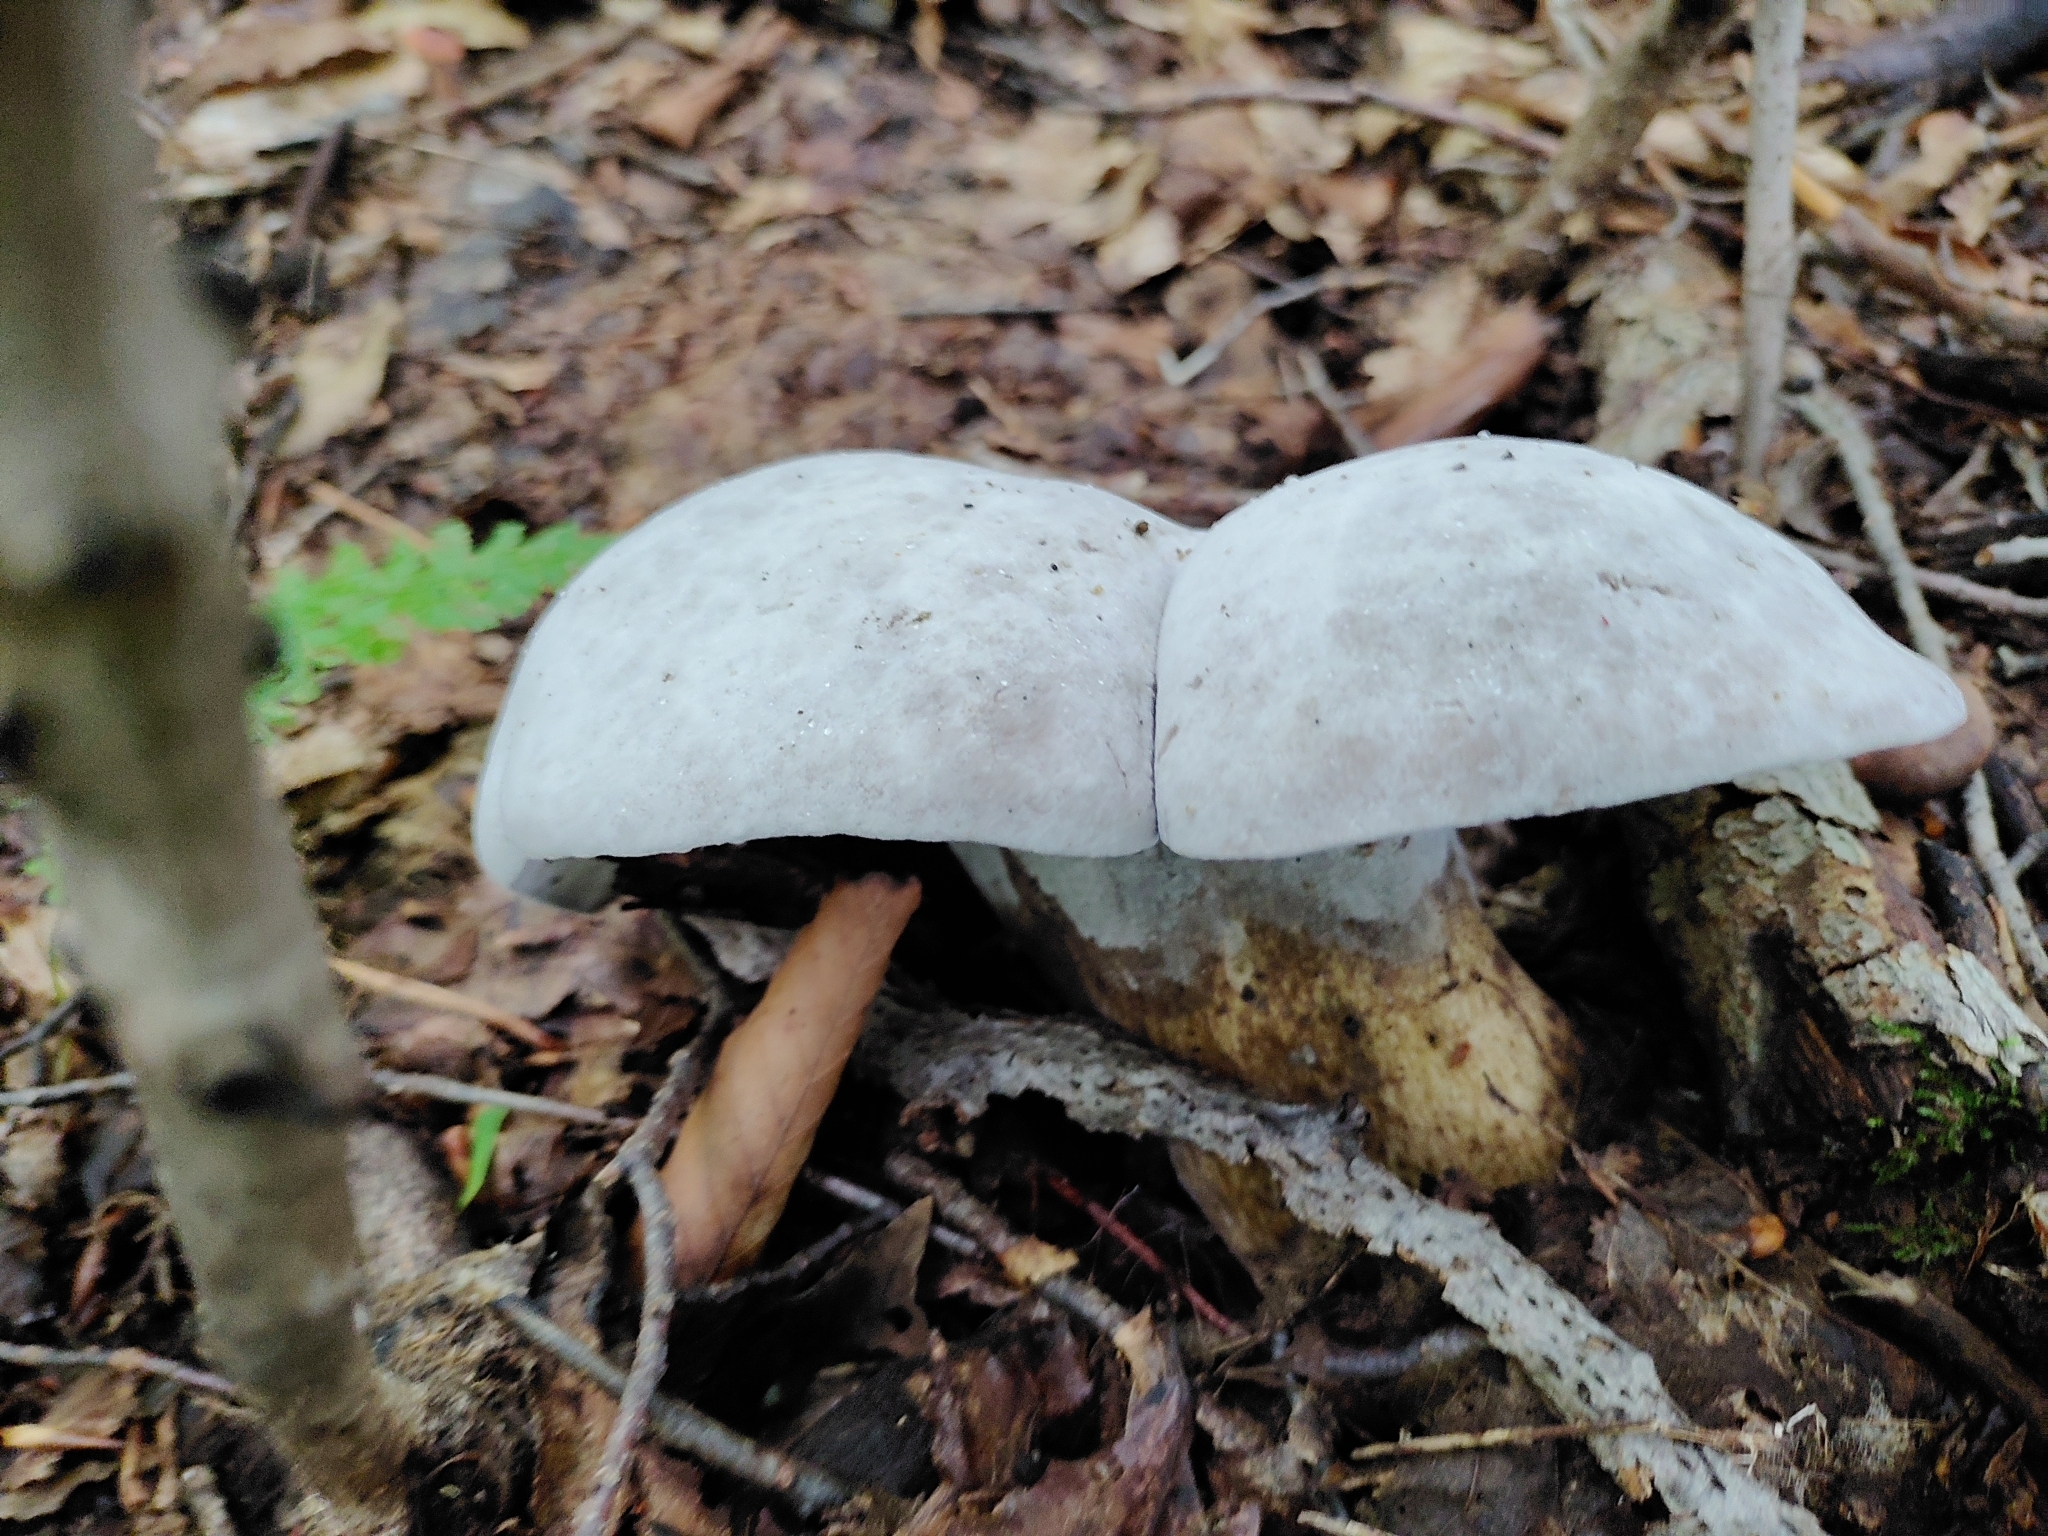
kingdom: Fungi
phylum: Ascomycota
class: Sordariomycetes
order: Hypocreales
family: Hypocreaceae
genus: Hypomyces
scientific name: Hypomyces melanocarpus
